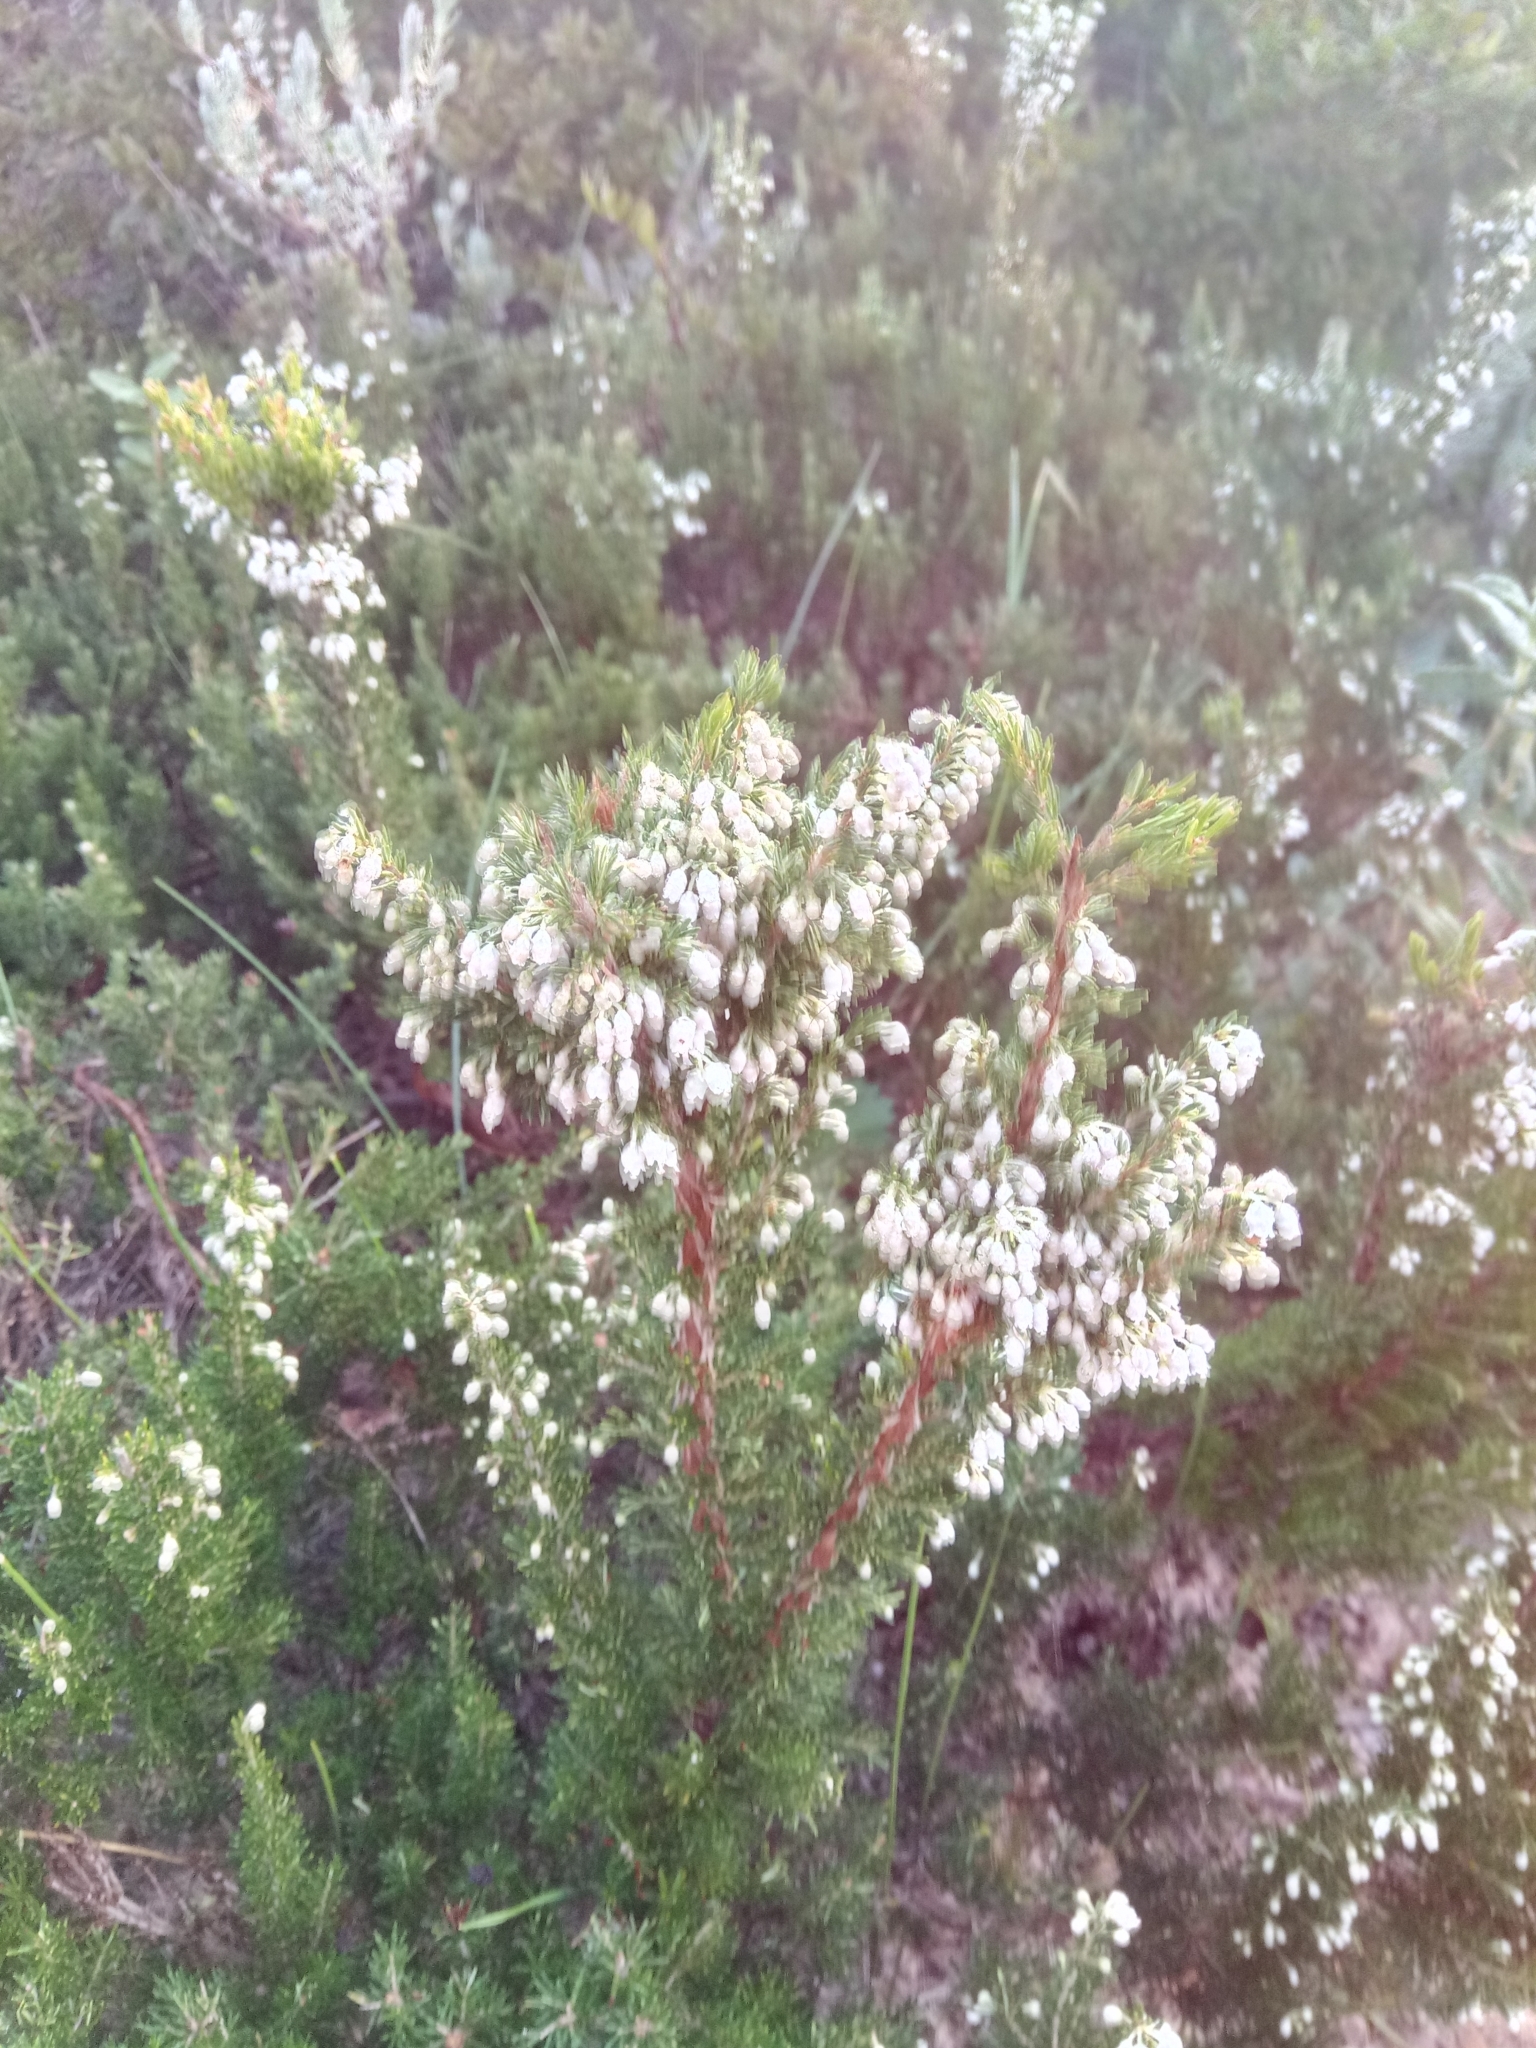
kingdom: Plantae
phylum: Tracheophyta
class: Magnoliopsida
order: Ericales
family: Ericaceae
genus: Erica
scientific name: Erica arborea
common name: Tree heath
